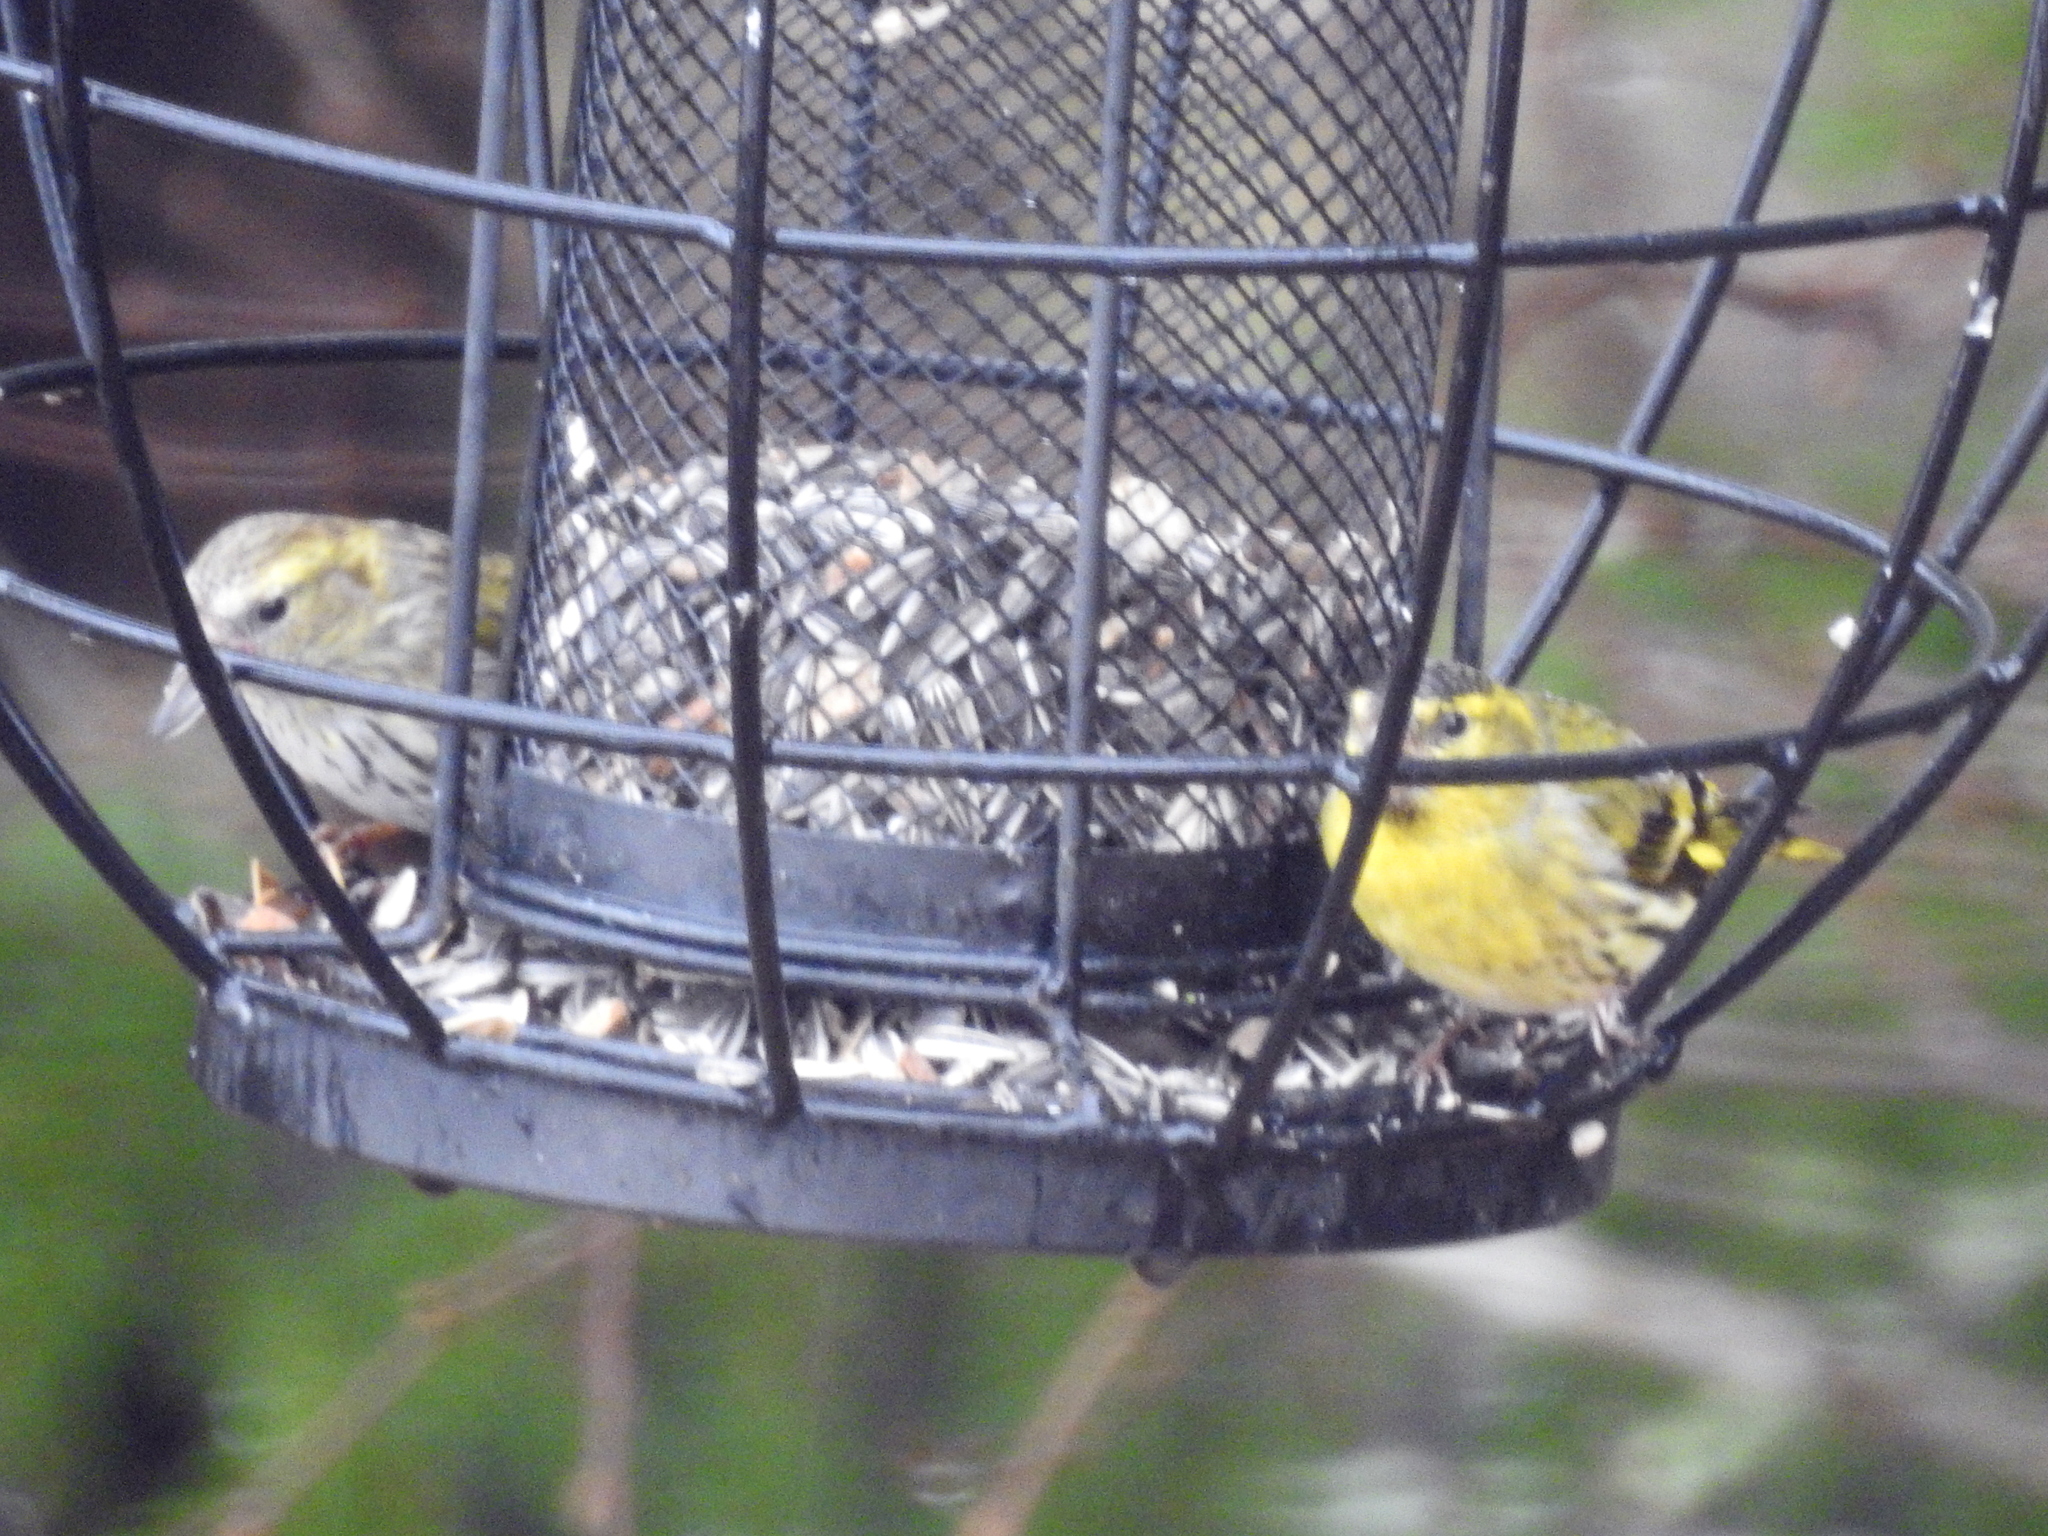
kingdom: Animalia
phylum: Chordata
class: Aves
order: Passeriformes
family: Fringillidae
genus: Spinus
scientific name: Spinus spinus
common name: Eurasian siskin
